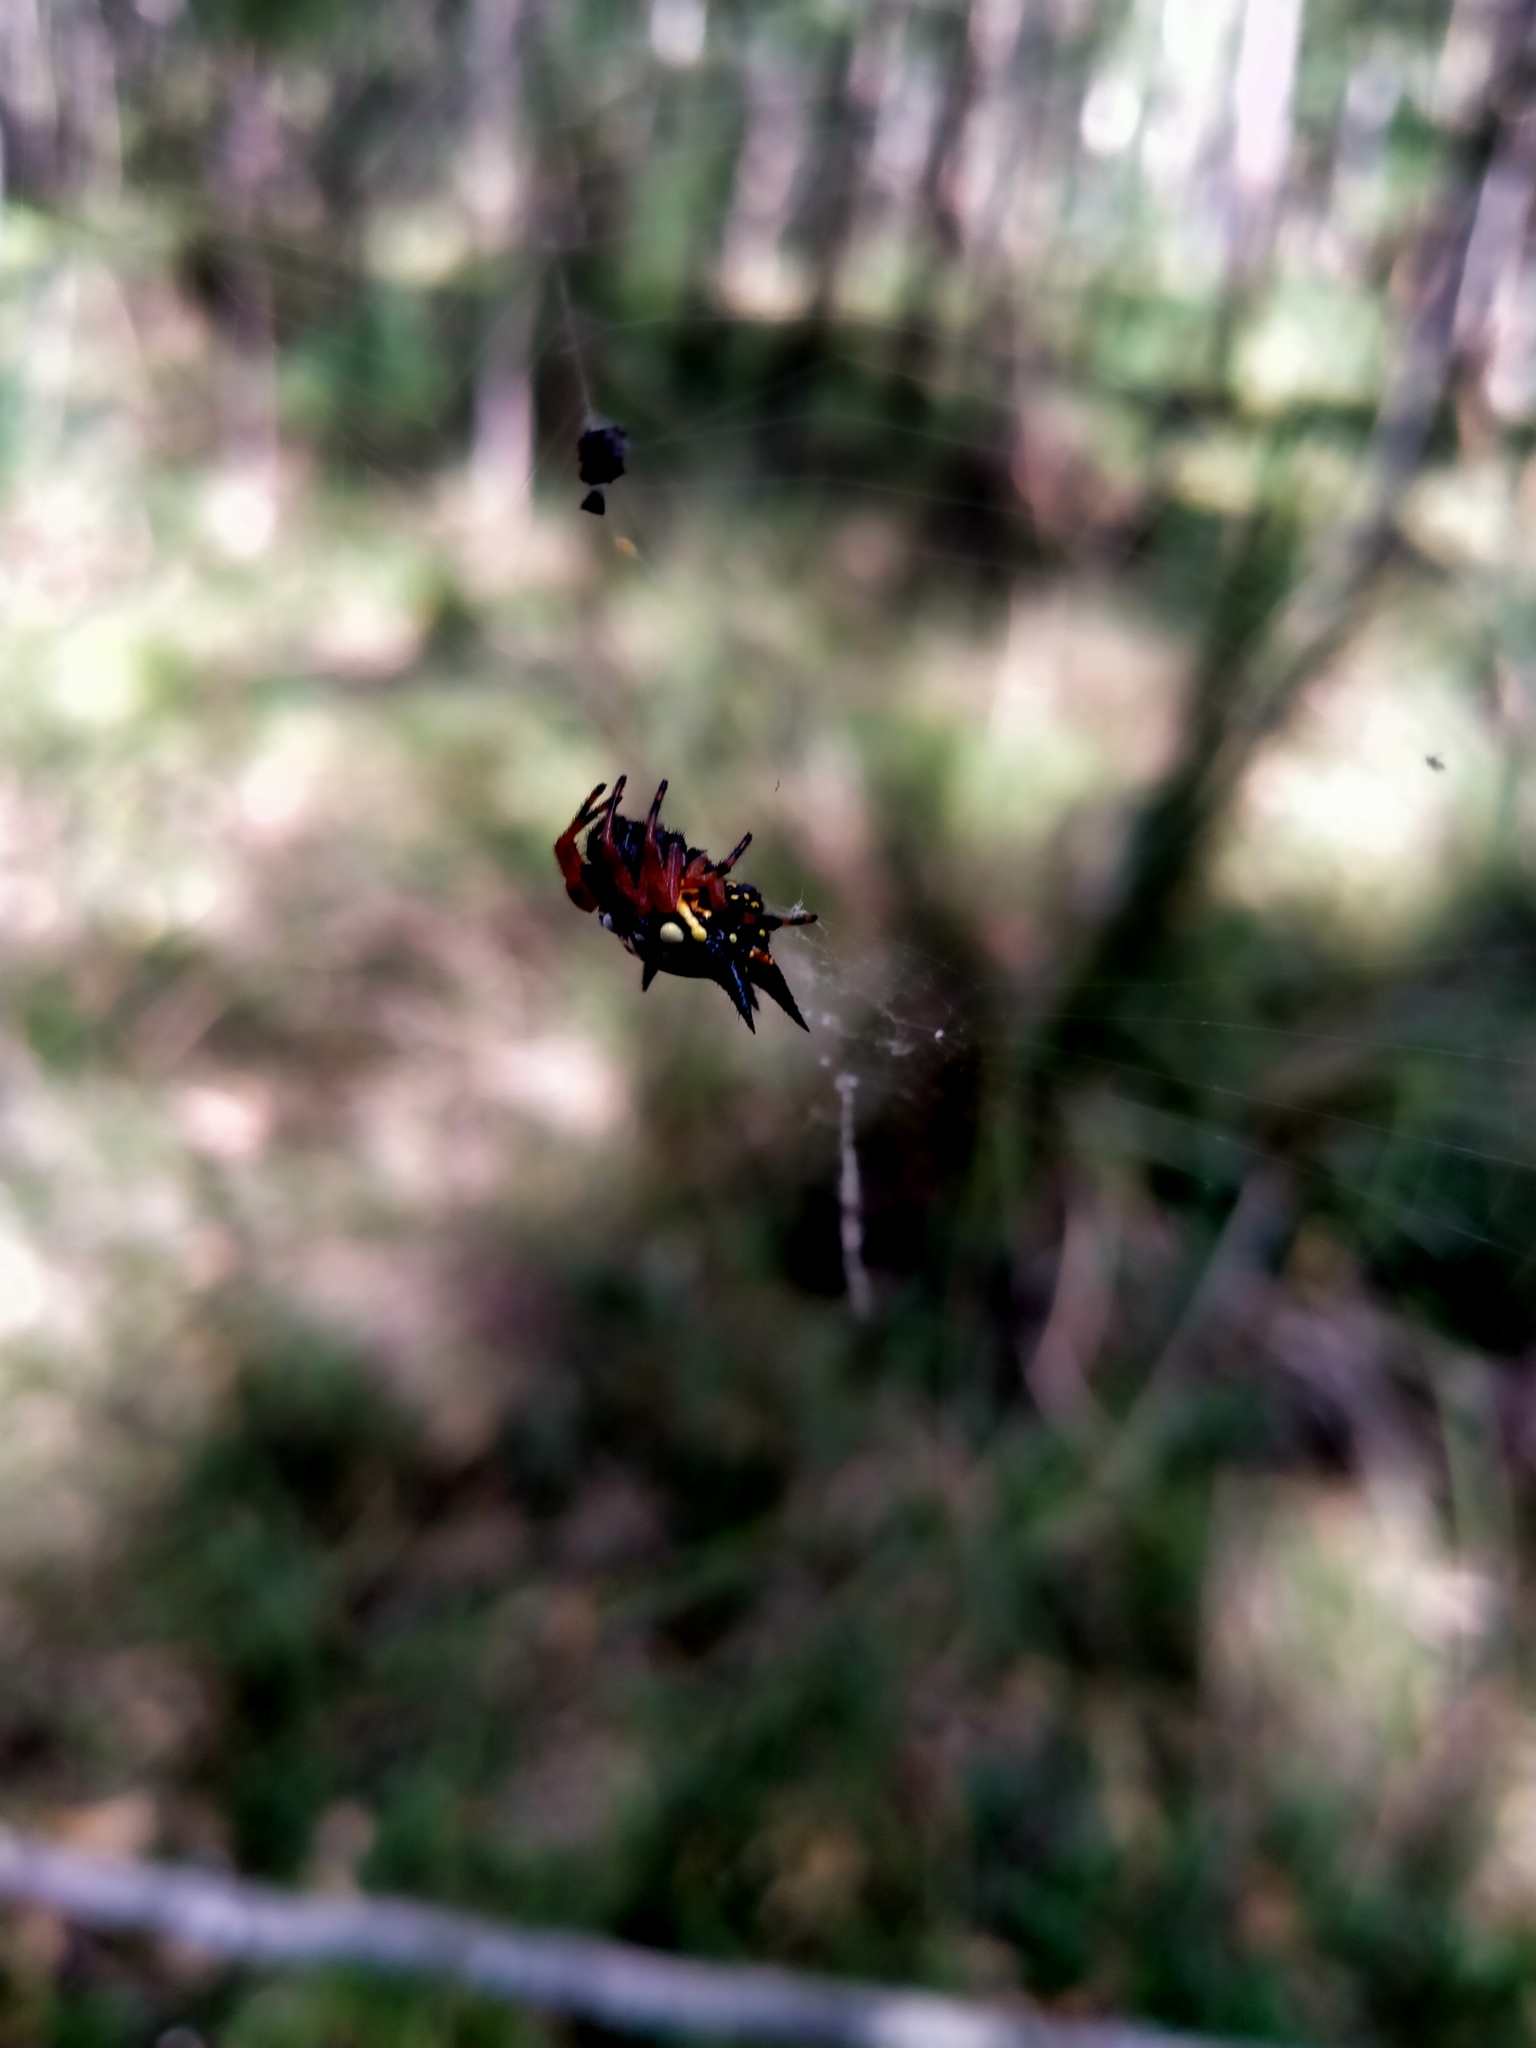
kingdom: Animalia
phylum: Arthropoda
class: Arachnida
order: Araneae
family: Araneidae
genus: Austracantha
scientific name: Austracantha minax
